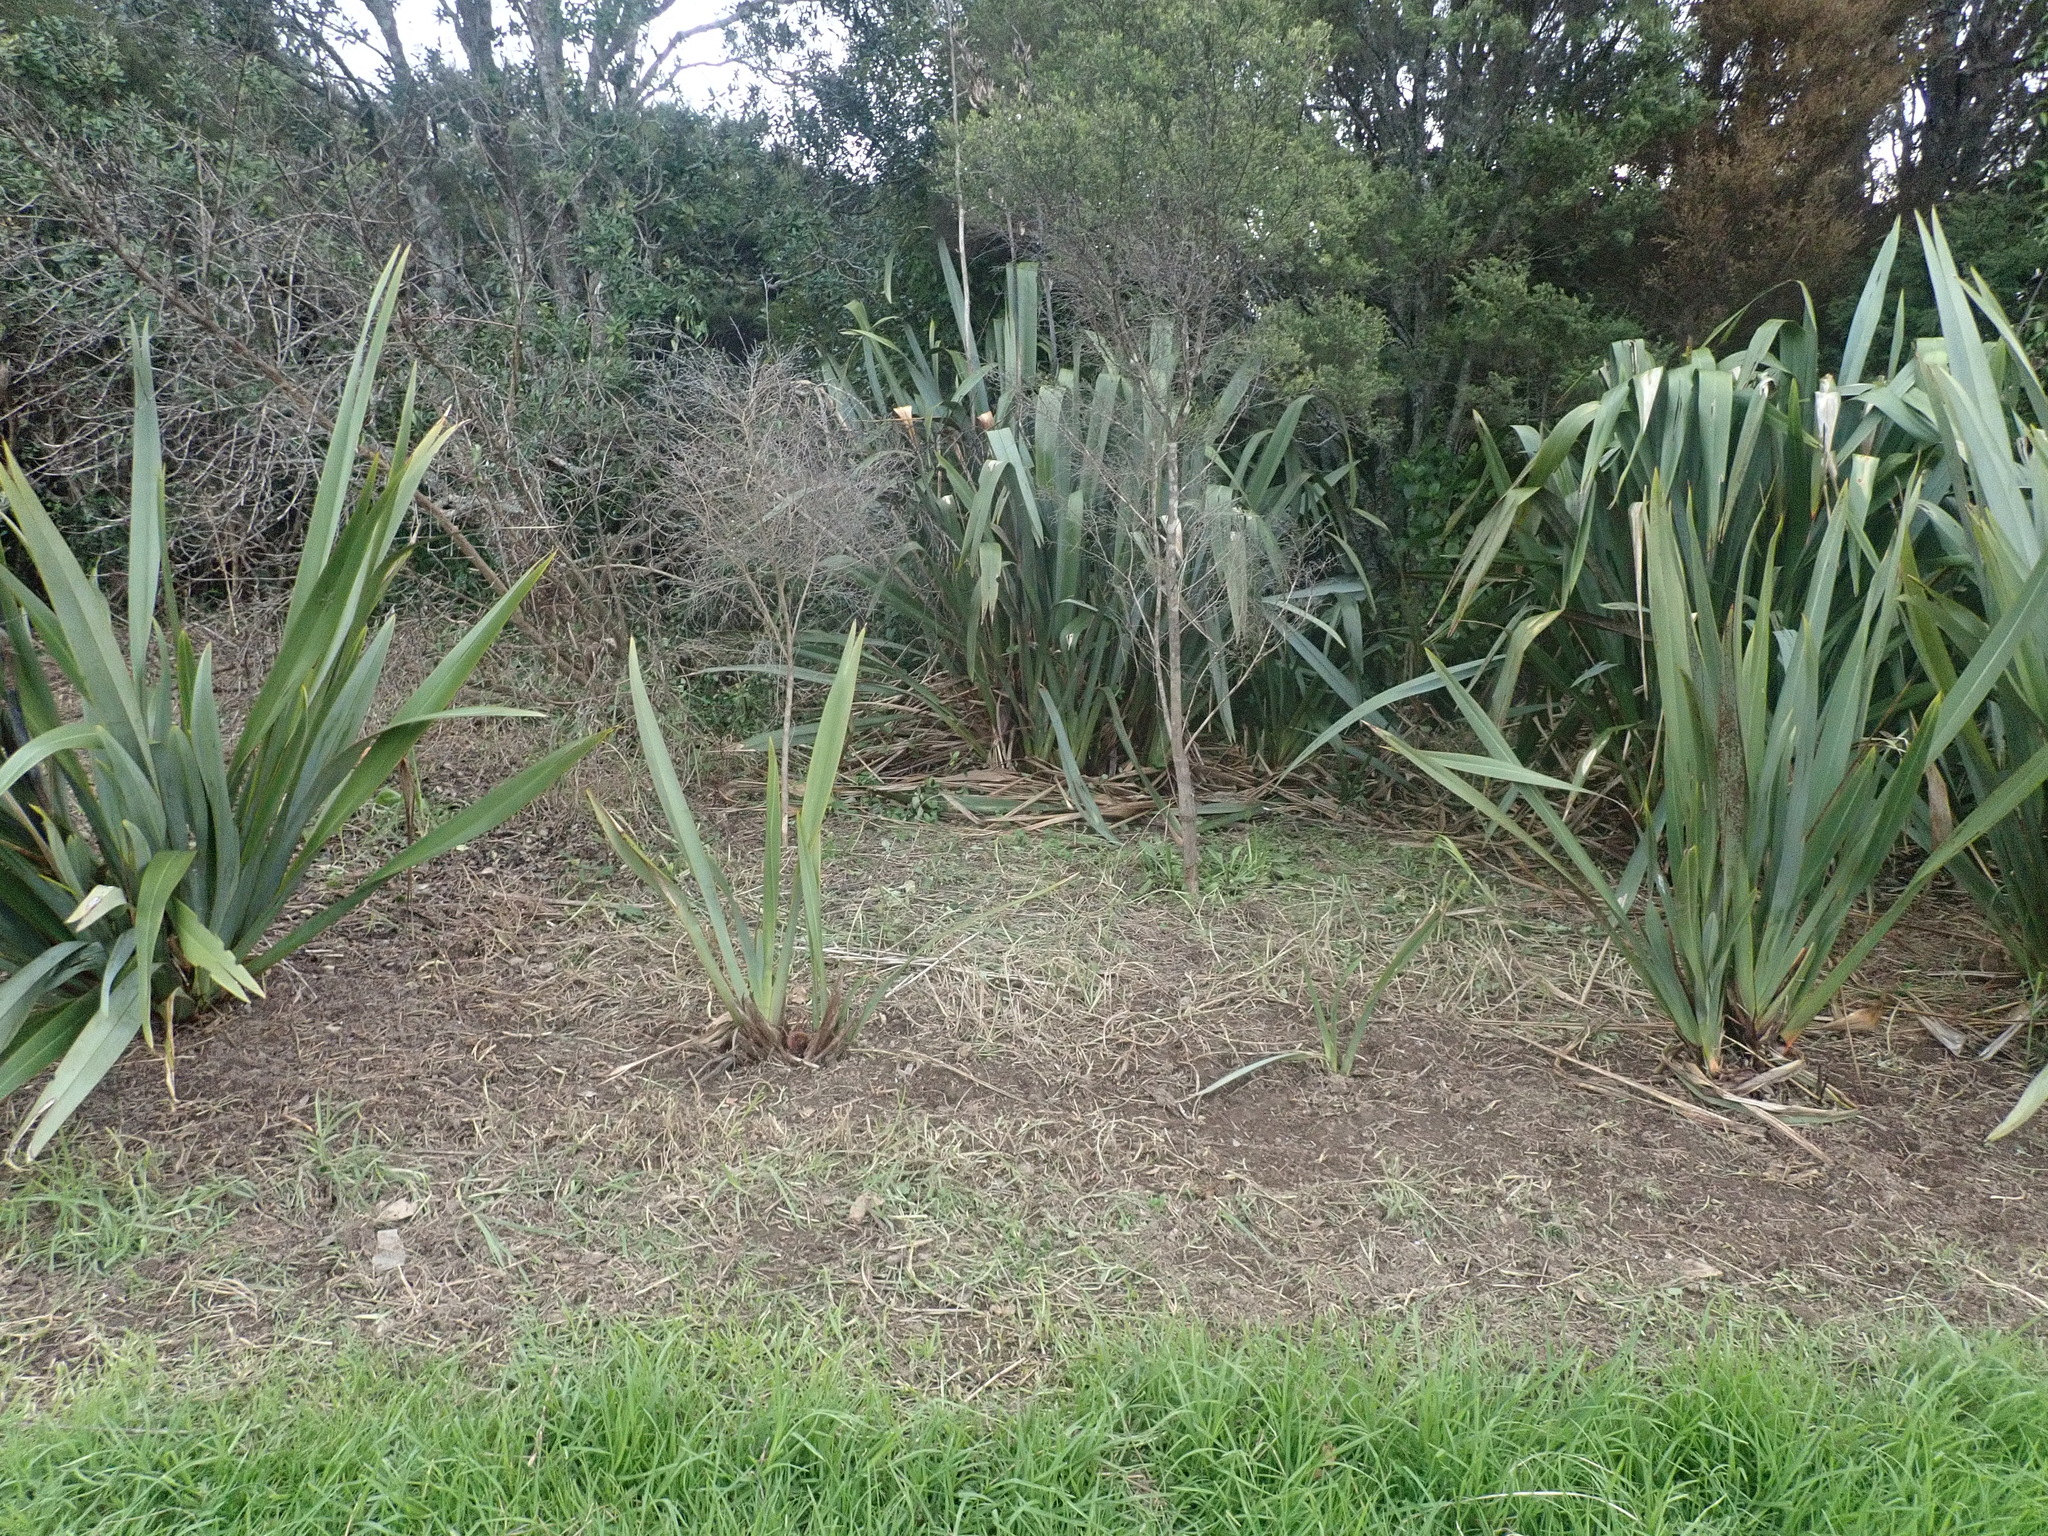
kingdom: Plantae
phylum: Tracheophyta
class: Magnoliopsida
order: Gentianales
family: Rubiaceae
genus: Coprosma
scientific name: Coprosma robusta
